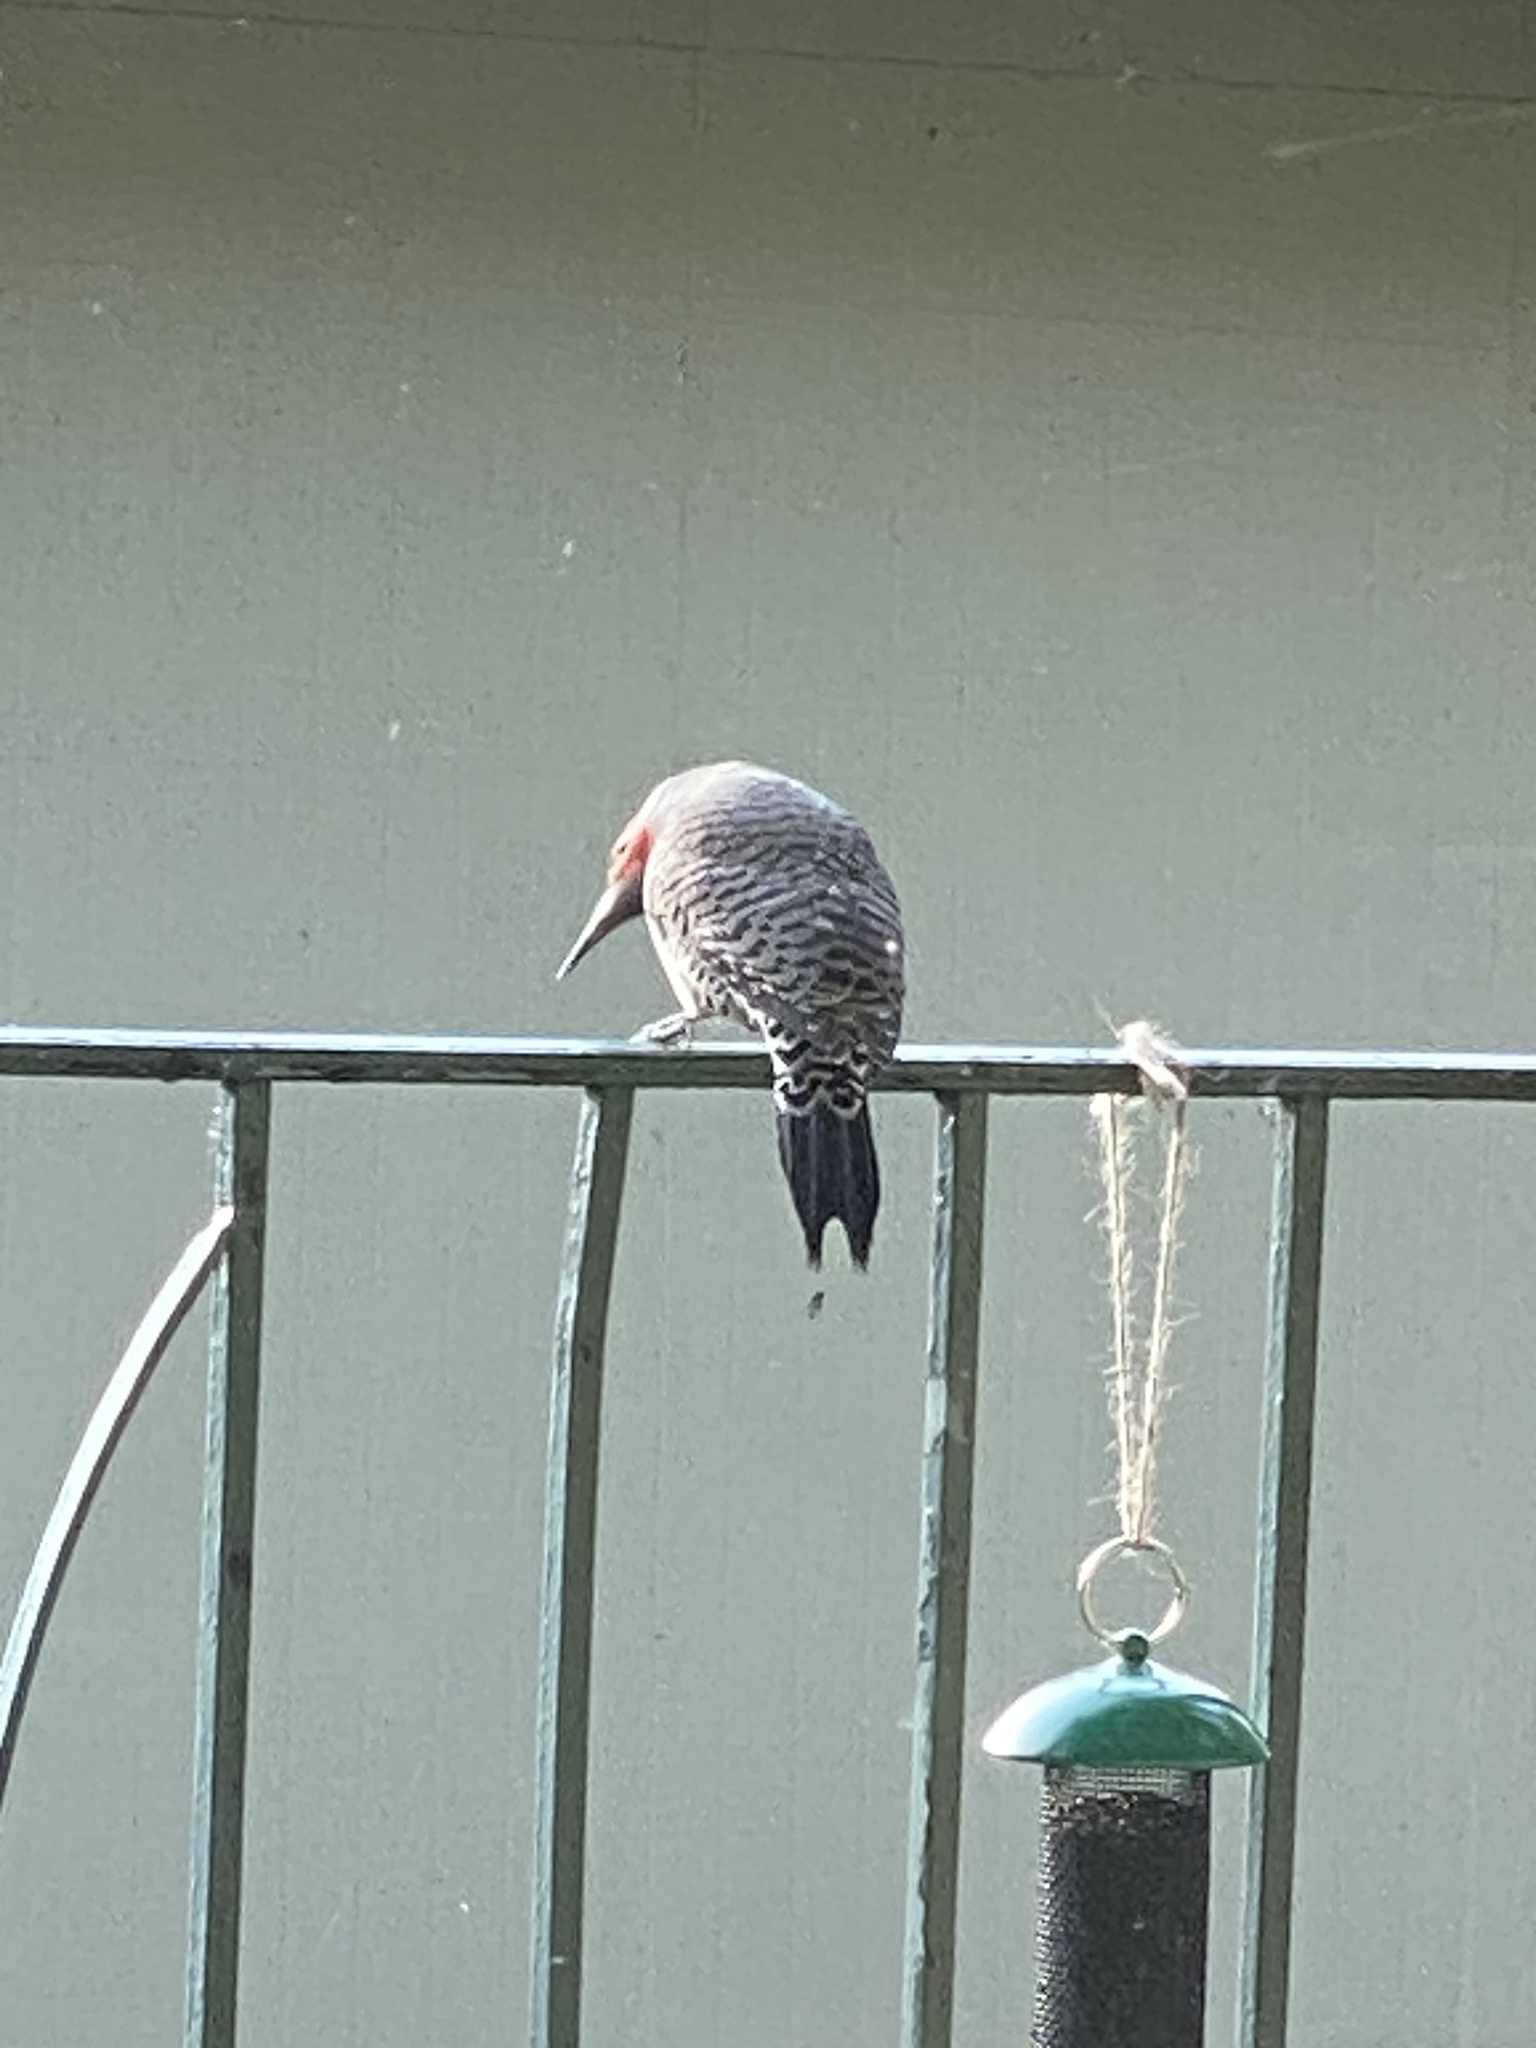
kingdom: Animalia
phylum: Chordata
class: Aves
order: Piciformes
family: Picidae
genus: Colaptes
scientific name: Colaptes auratus
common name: Northern flicker
